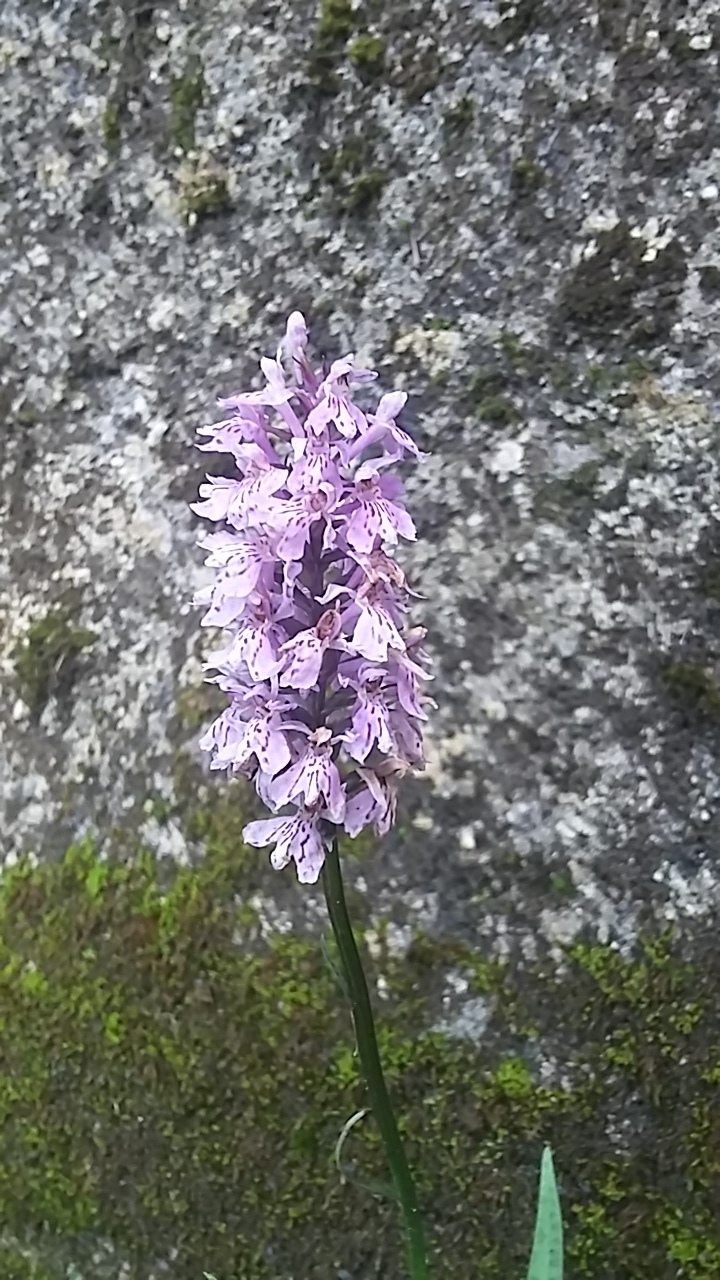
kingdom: Plantae
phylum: Tracheophyta
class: Liliopsida
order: Asparagales
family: Orchidaceae
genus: Dactylorhiza
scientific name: Dactylorhiza maculata
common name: Heath spotted-orchid
